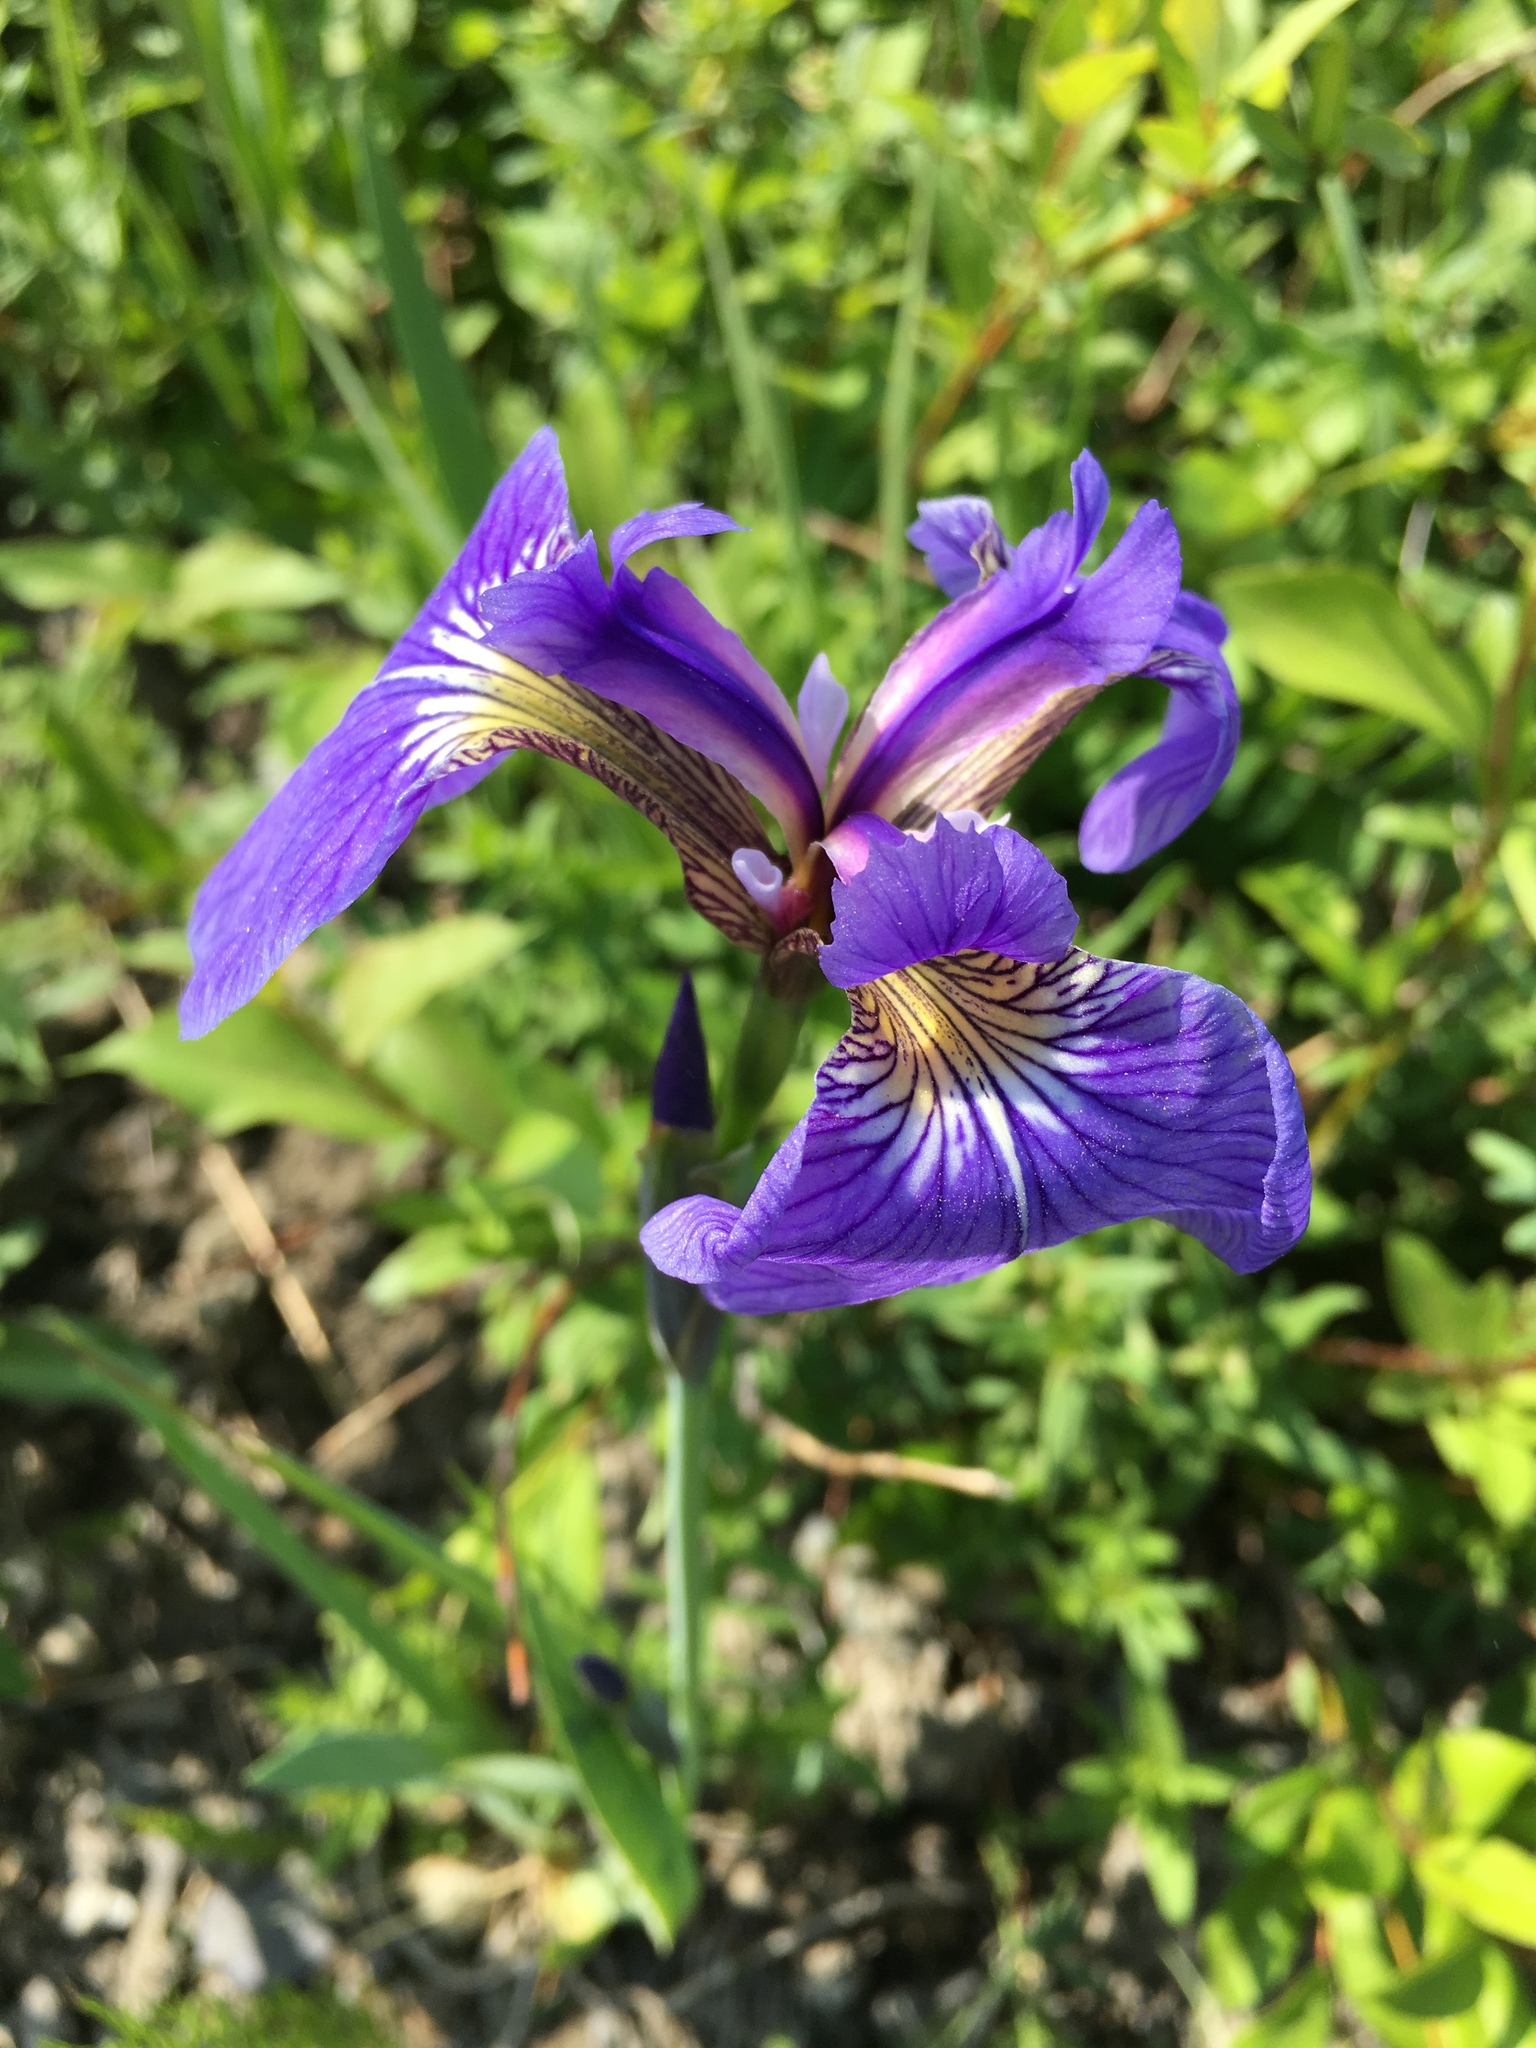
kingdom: Plantae
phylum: Tracheophyta
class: Liliopsida
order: Asparagales
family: Iridaceae
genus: Iris
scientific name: Iris setosa
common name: Arctic blue flag
